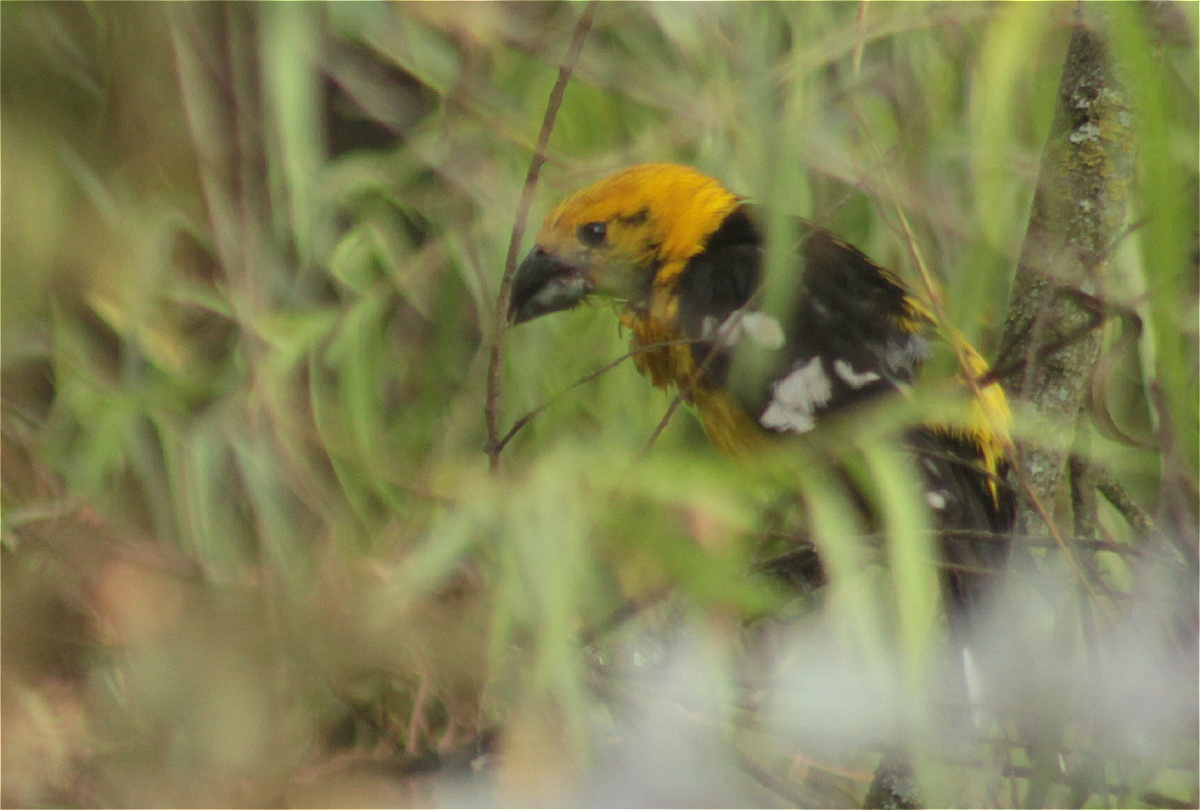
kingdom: Animalia
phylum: Chordata
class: Aves
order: Passeriformes
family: Cardinalidae
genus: Pheucticus
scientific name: Pheucticus chrysogaster
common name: Golden grosbeak
